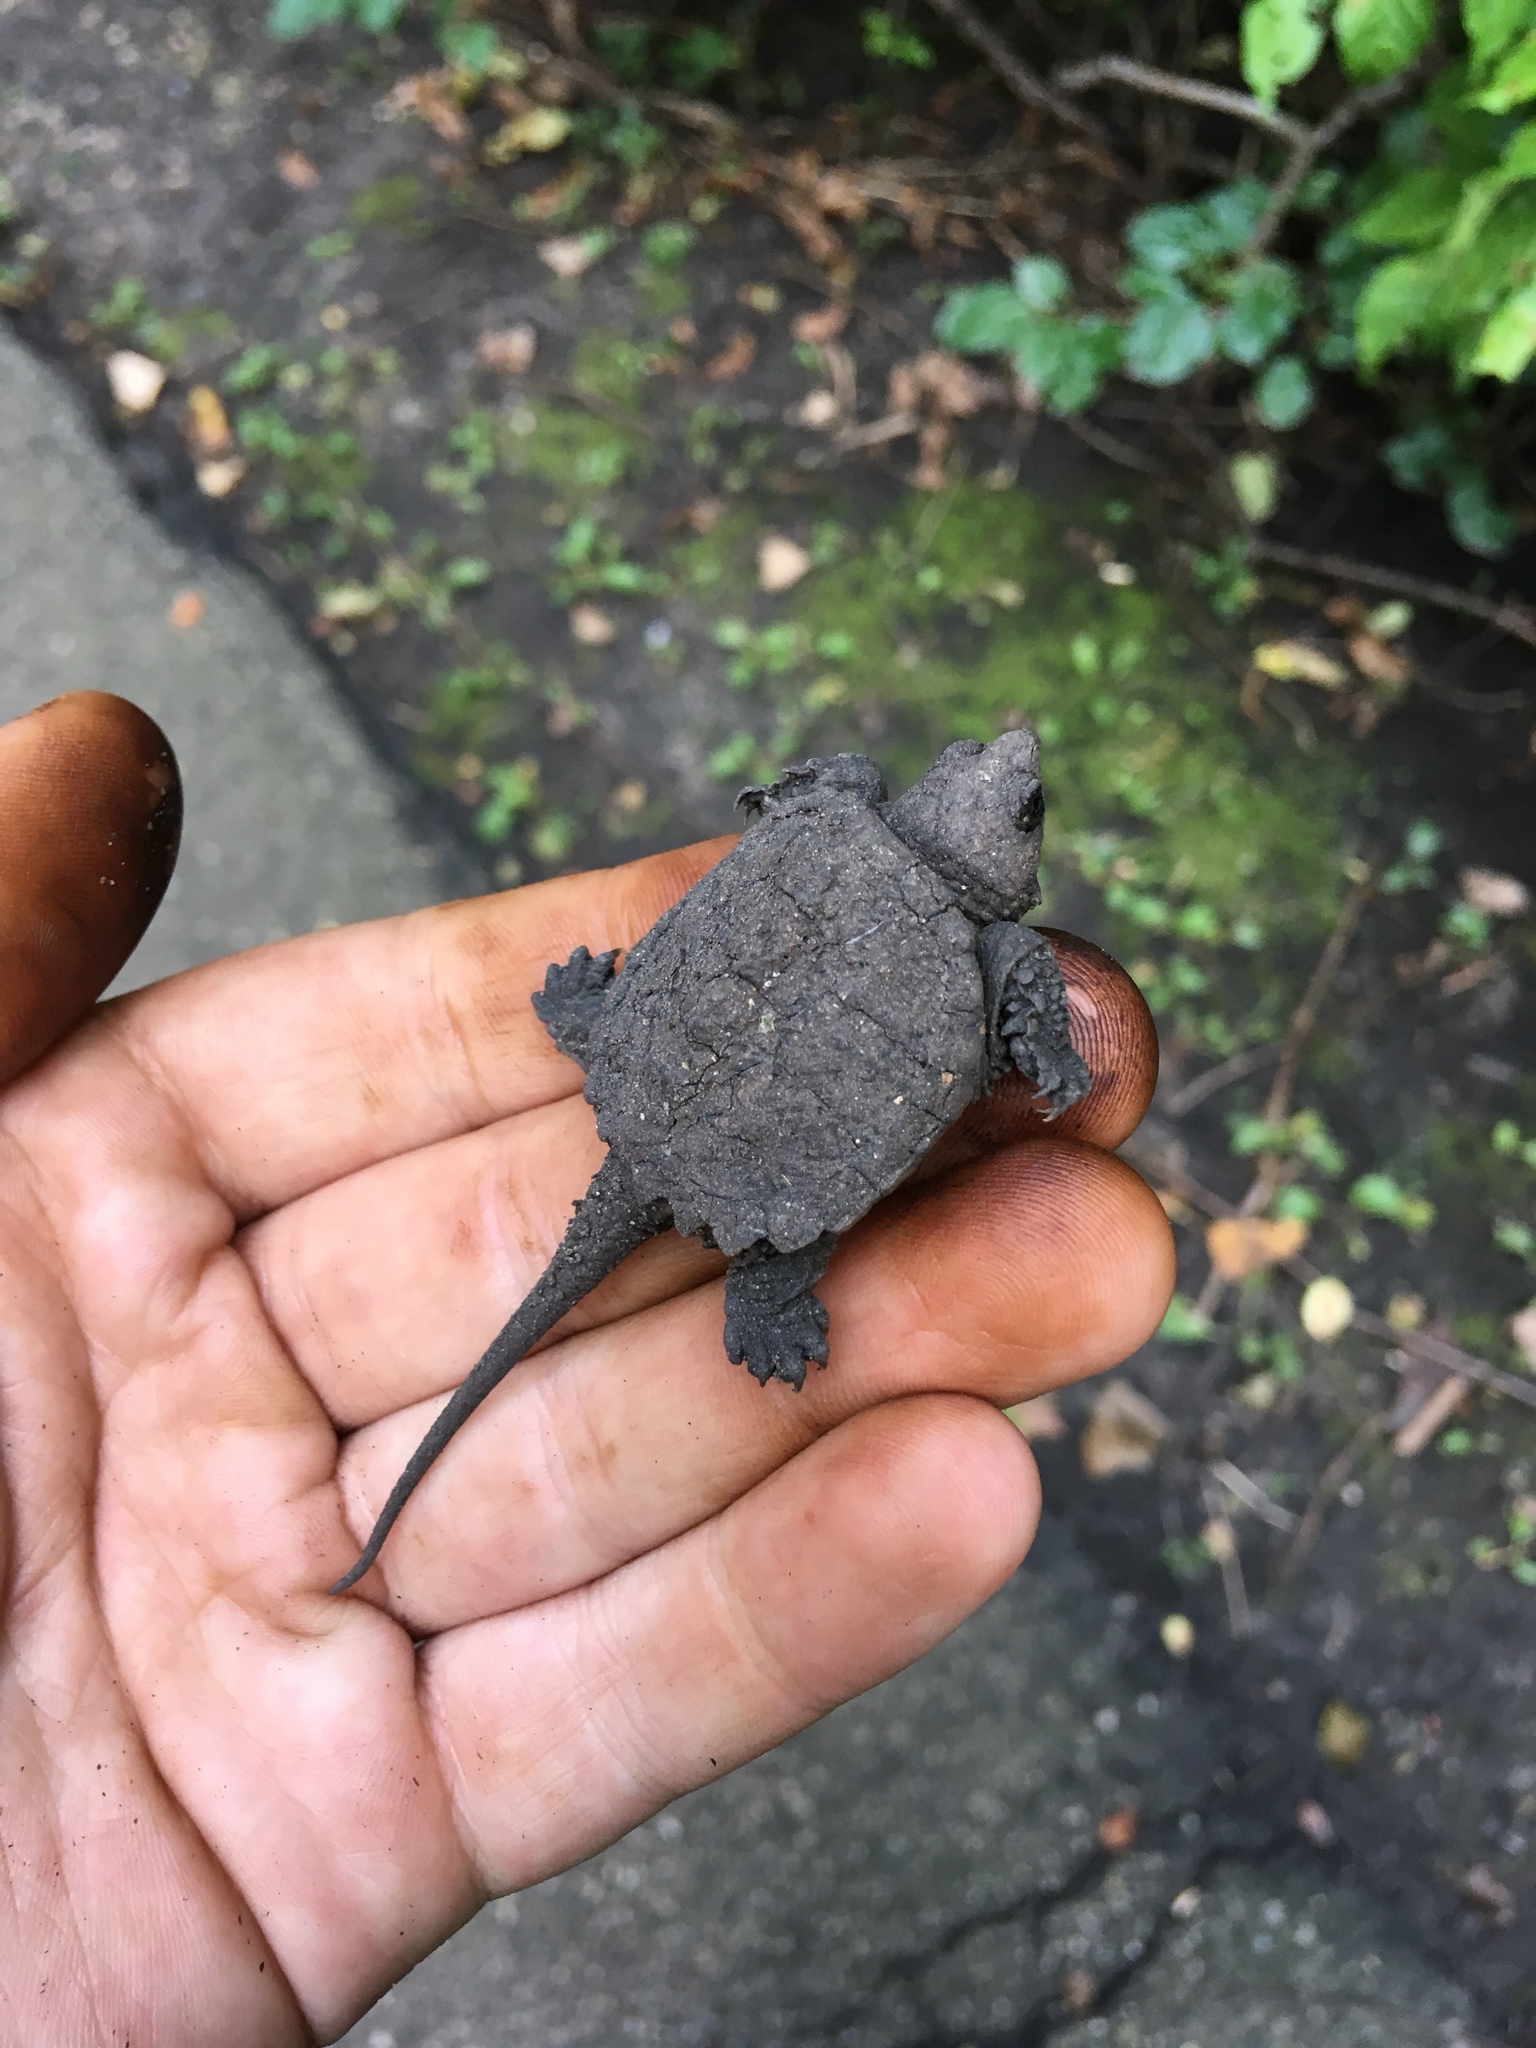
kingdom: Animalia
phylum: Chordata
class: Testudines
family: Chelydridae
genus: Chelydra
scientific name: Chelydra serpentina
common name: Common snapping turtle
